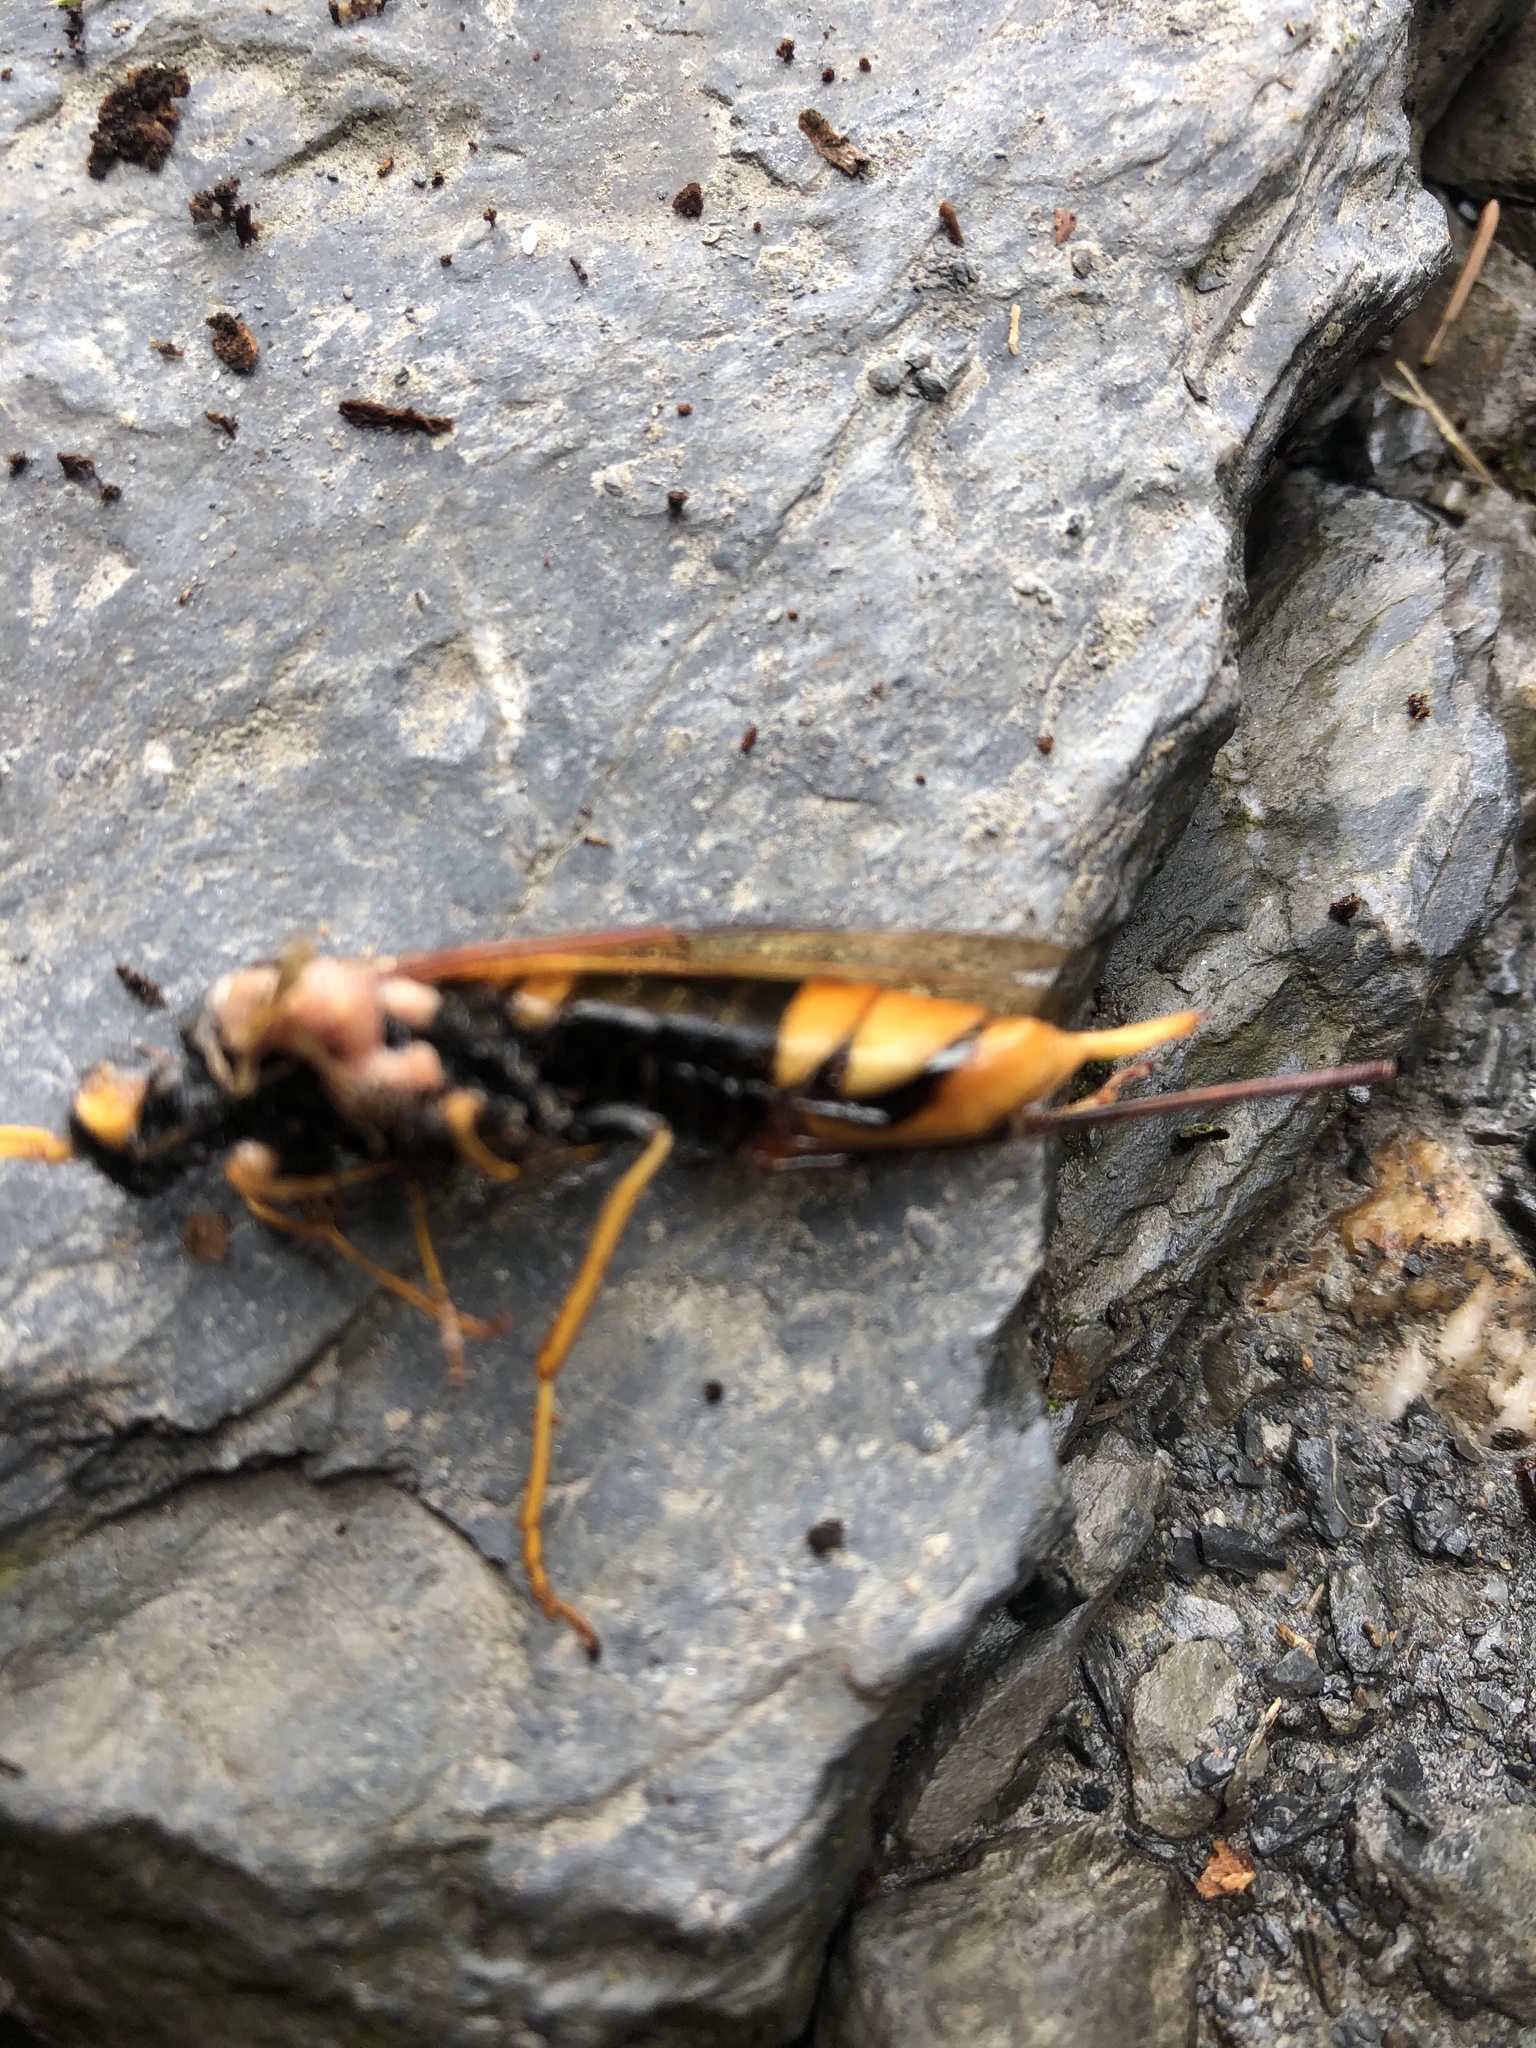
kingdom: Animalia
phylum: Arthropoda
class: Insecta
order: Hymenoptera
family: Siricidae
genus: Urocerus
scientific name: Urocerus gigas
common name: Giant woodwasp
